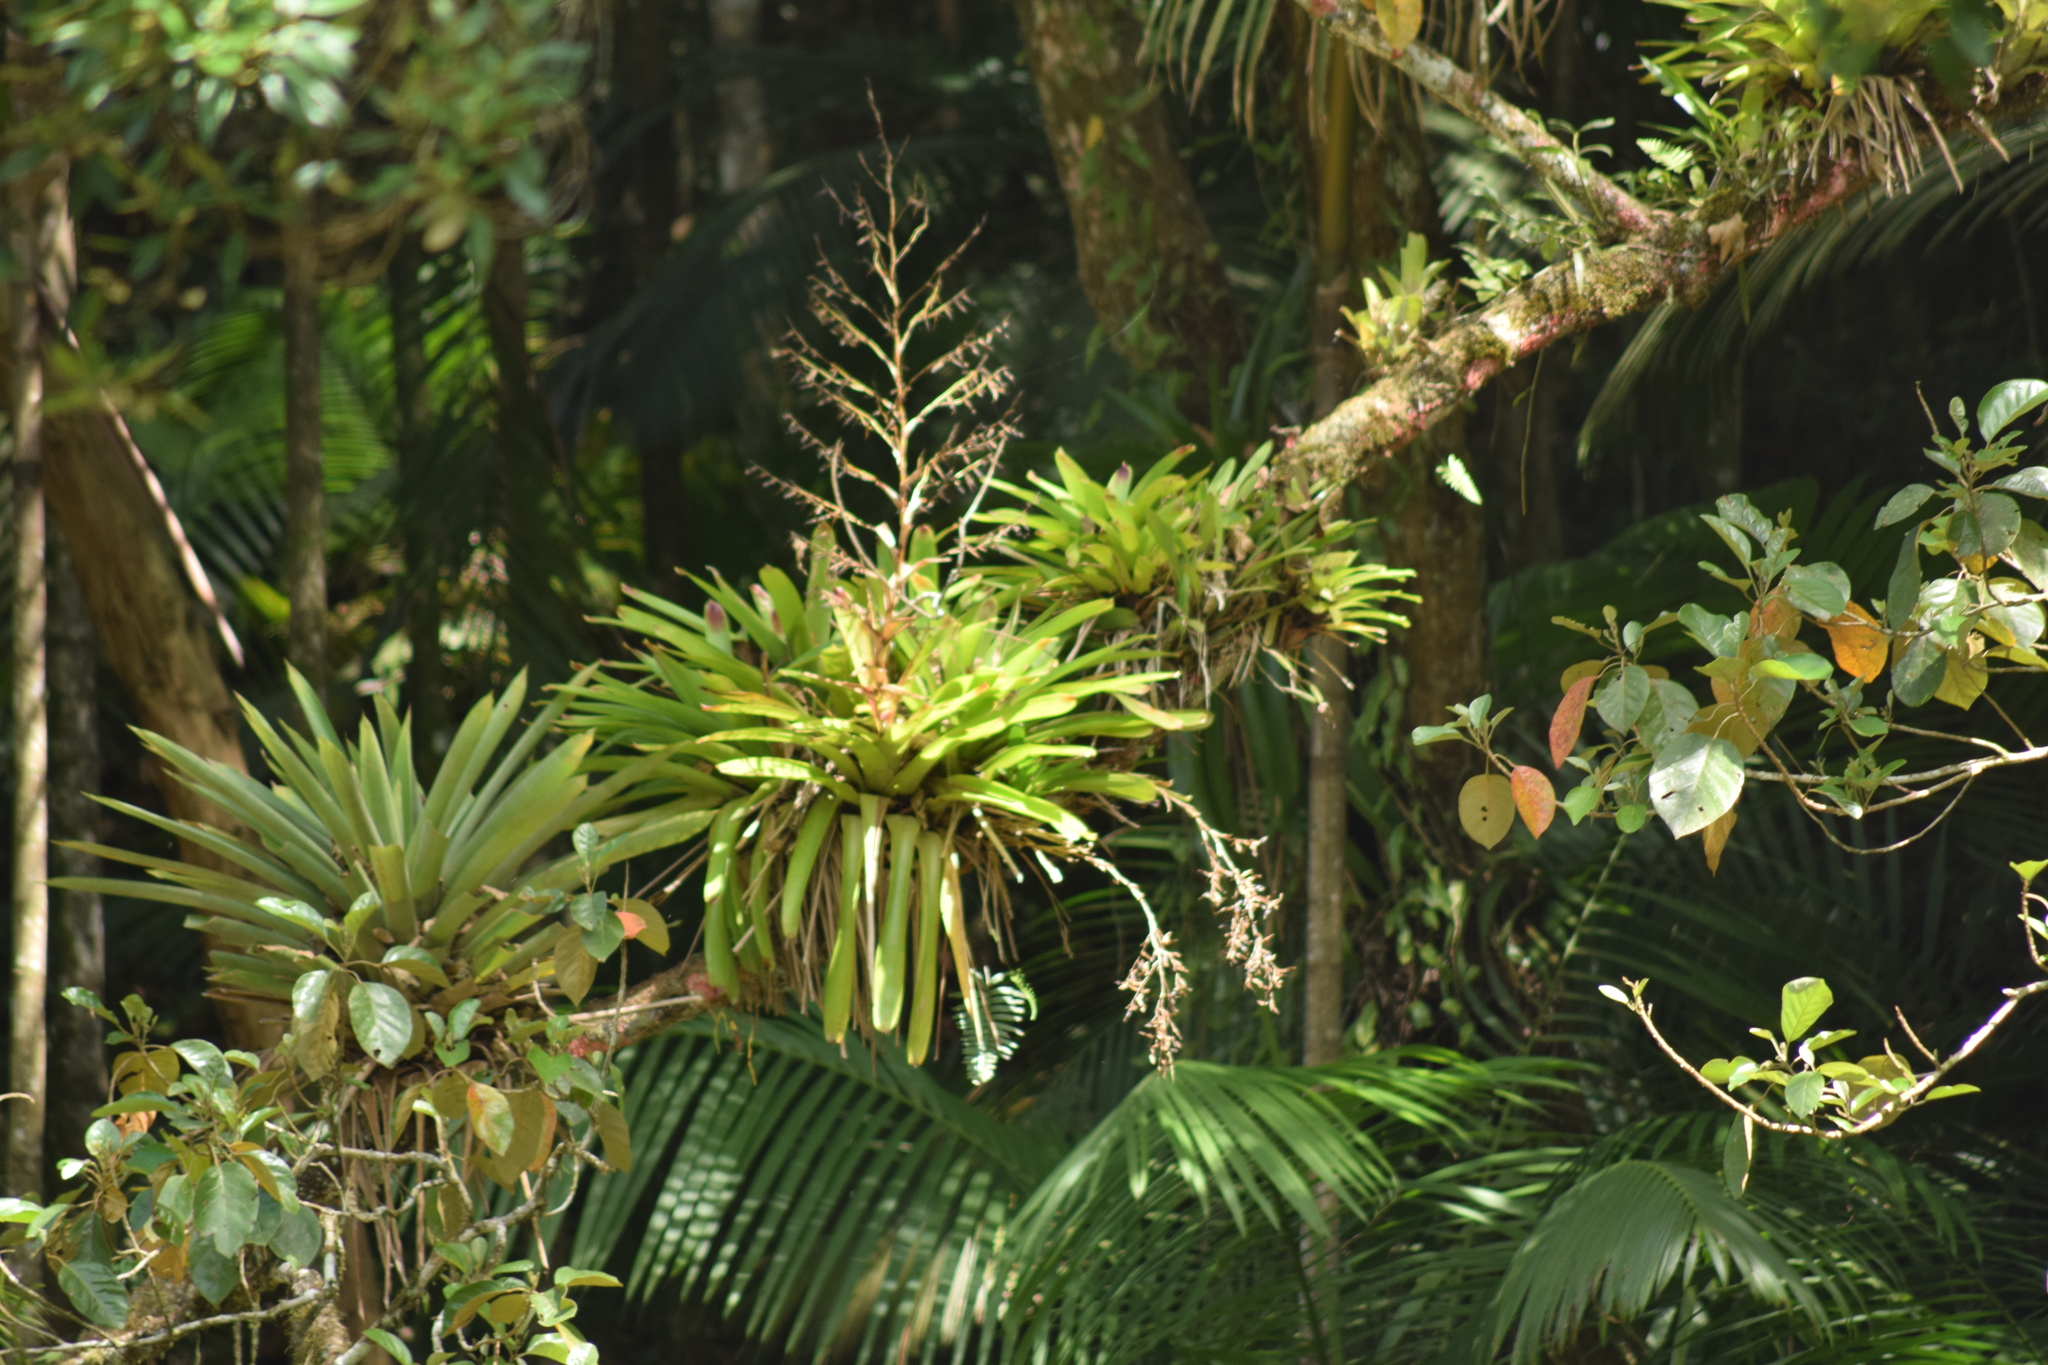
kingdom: Plantae
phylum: Tracheophyta
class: Liliopsida
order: Poales
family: Bromeliaceae
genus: Vriesea
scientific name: Vriesea philippocoburgi
